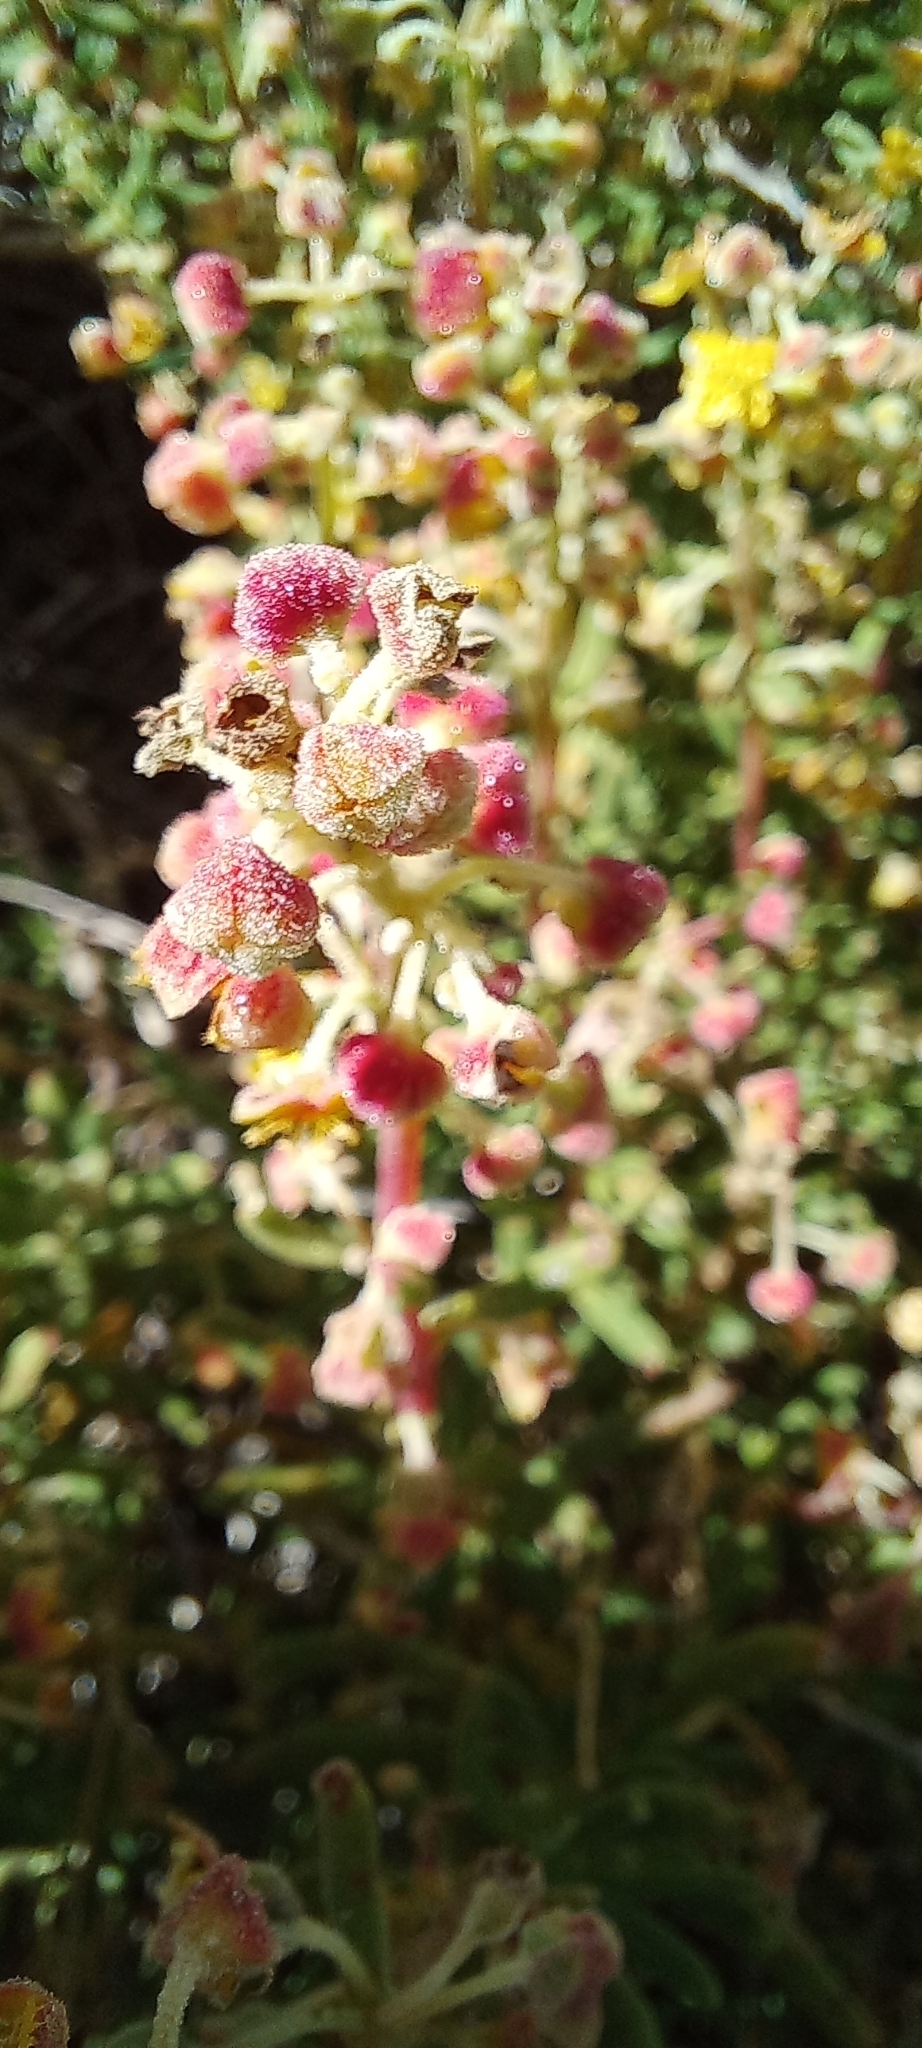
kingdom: Plantae
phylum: Tracheophyta
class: Magnoliopsida
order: Caryophyllales
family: Aizoaceae
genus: Tetragonia
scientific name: Tetragonia fruticosa
